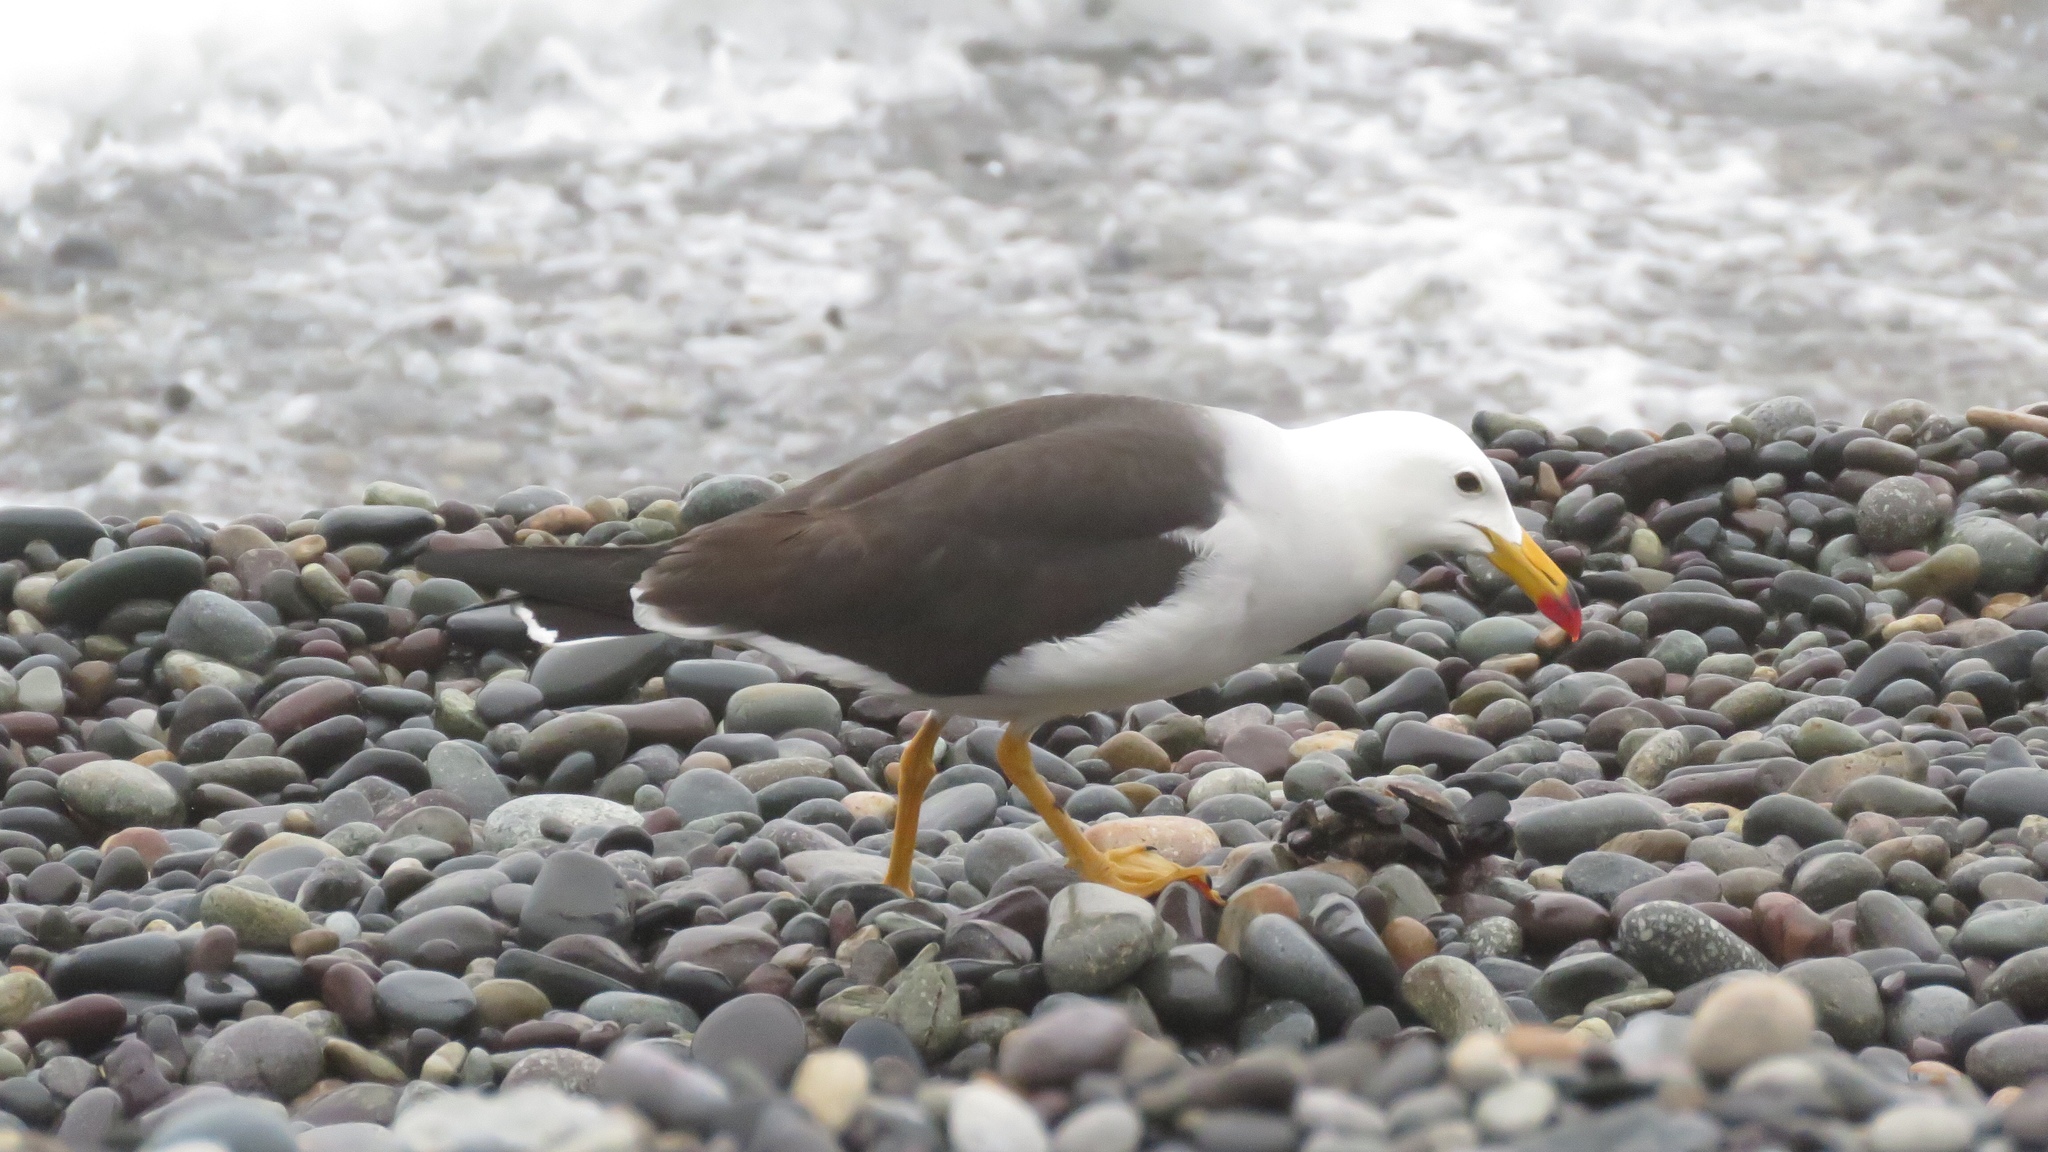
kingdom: Animalia
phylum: Chordata
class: Aves
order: Charadriiformes
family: Laridae
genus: Larus
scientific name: Larus belcheri
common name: Belcher's gull
